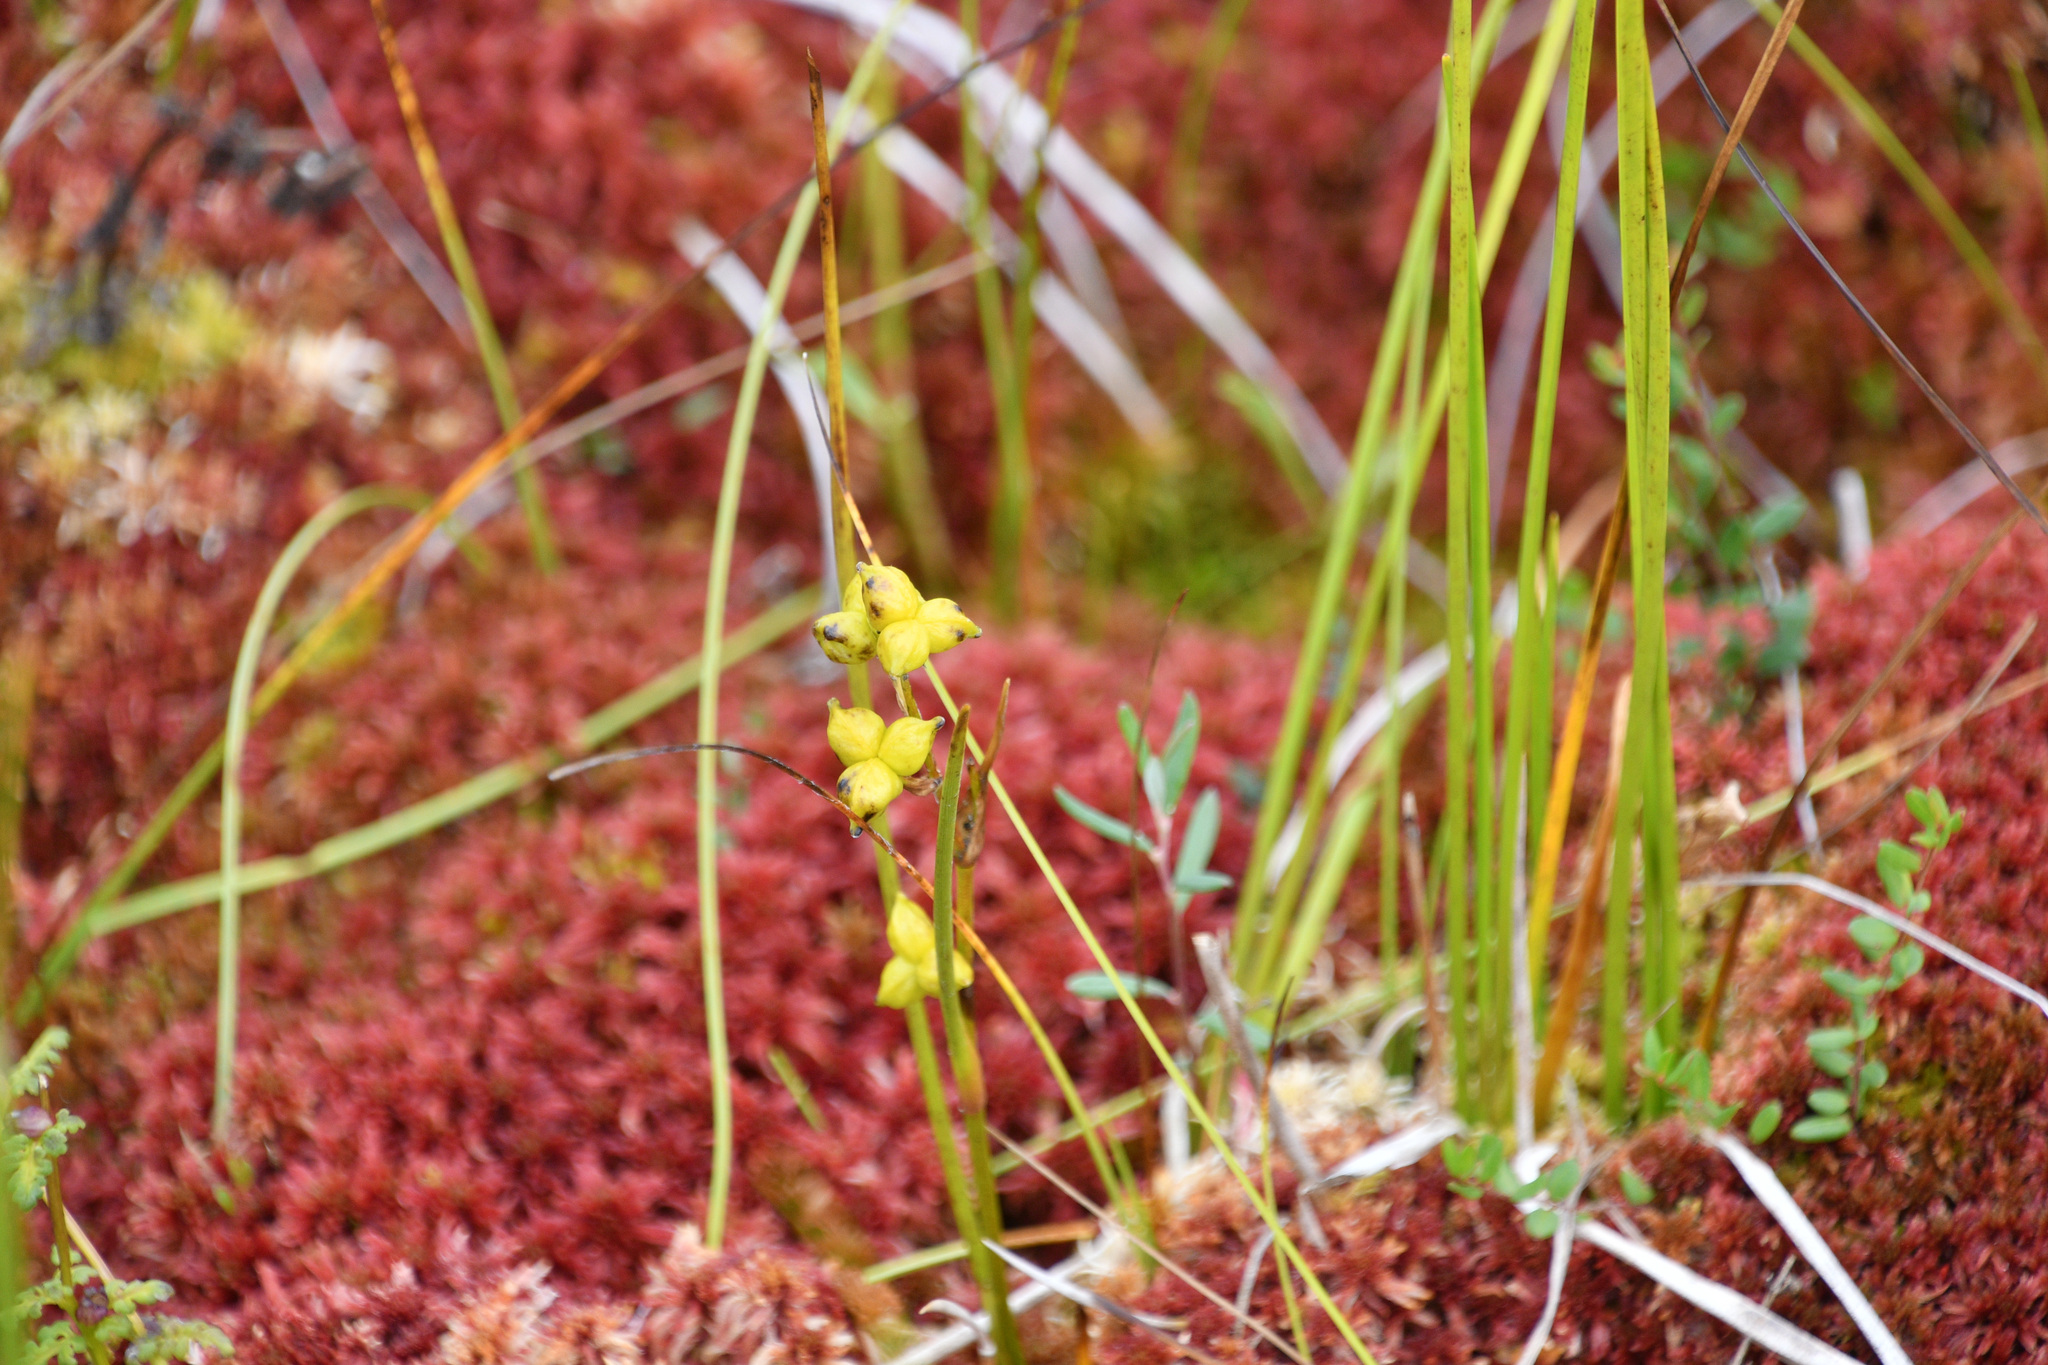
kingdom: Plantae
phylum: Tracheophyta
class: Liliopsida
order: Alismatales
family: Scheuchzeriaceae
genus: Scheuchzeria
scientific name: Scheuchzeria palustris
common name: Rannoch-rush
